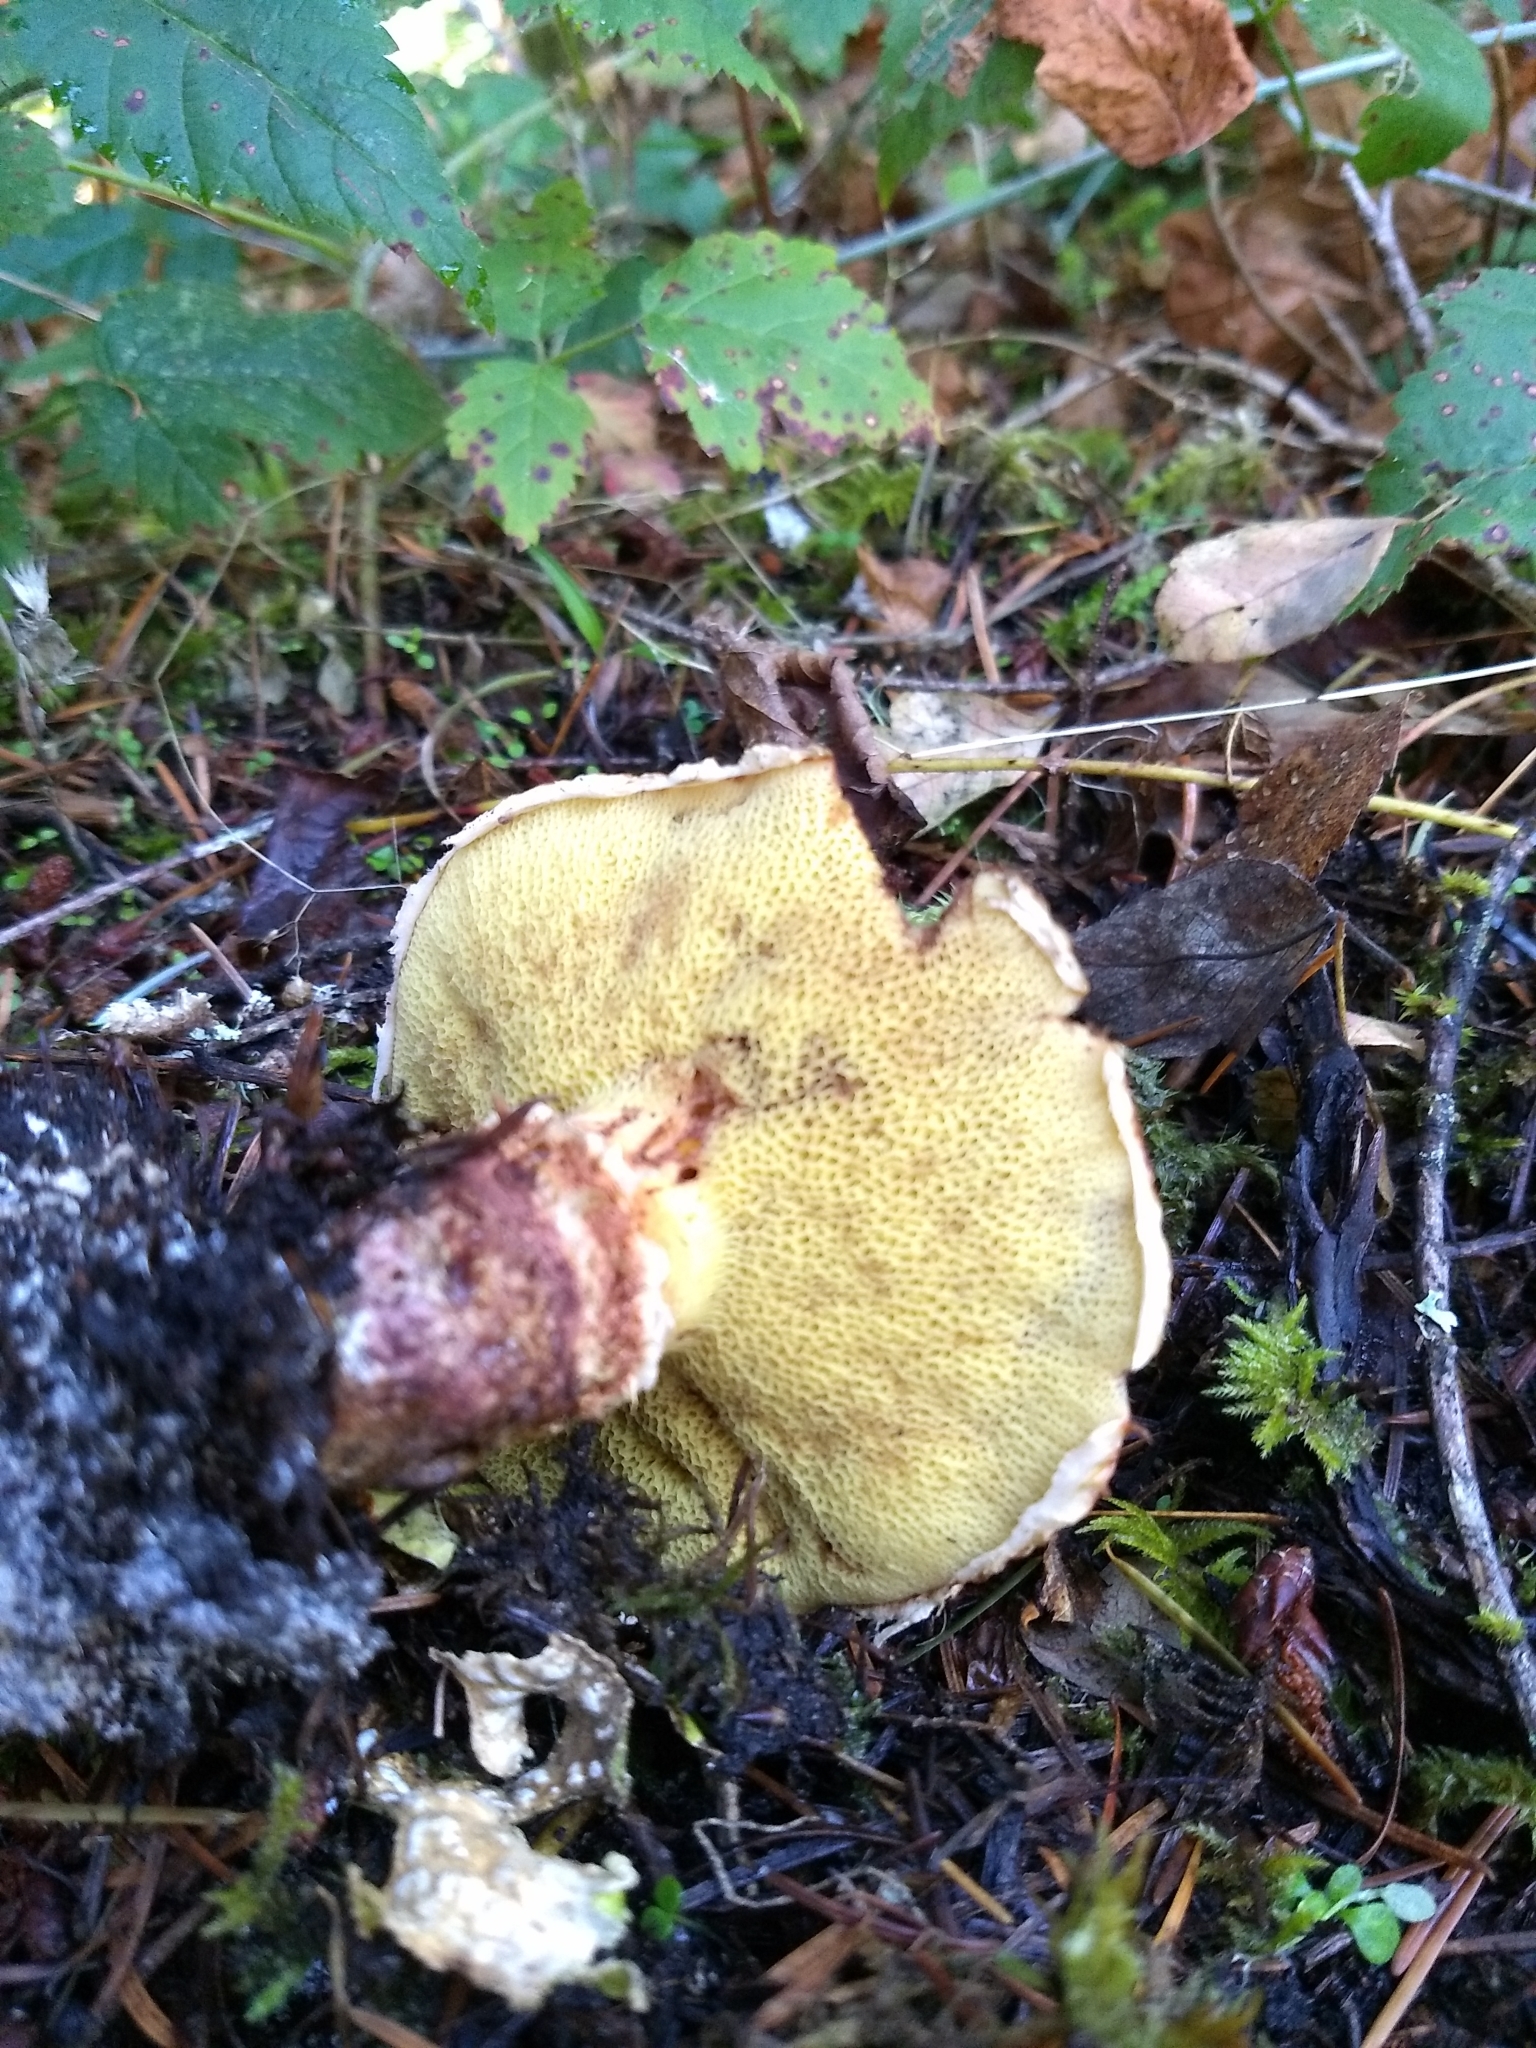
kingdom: Fungi
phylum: Basidiomycota
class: Agaricomycetes
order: Boletales
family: Suillaceae
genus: Suillus
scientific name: Suillus lakei
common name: Western painted suillus
